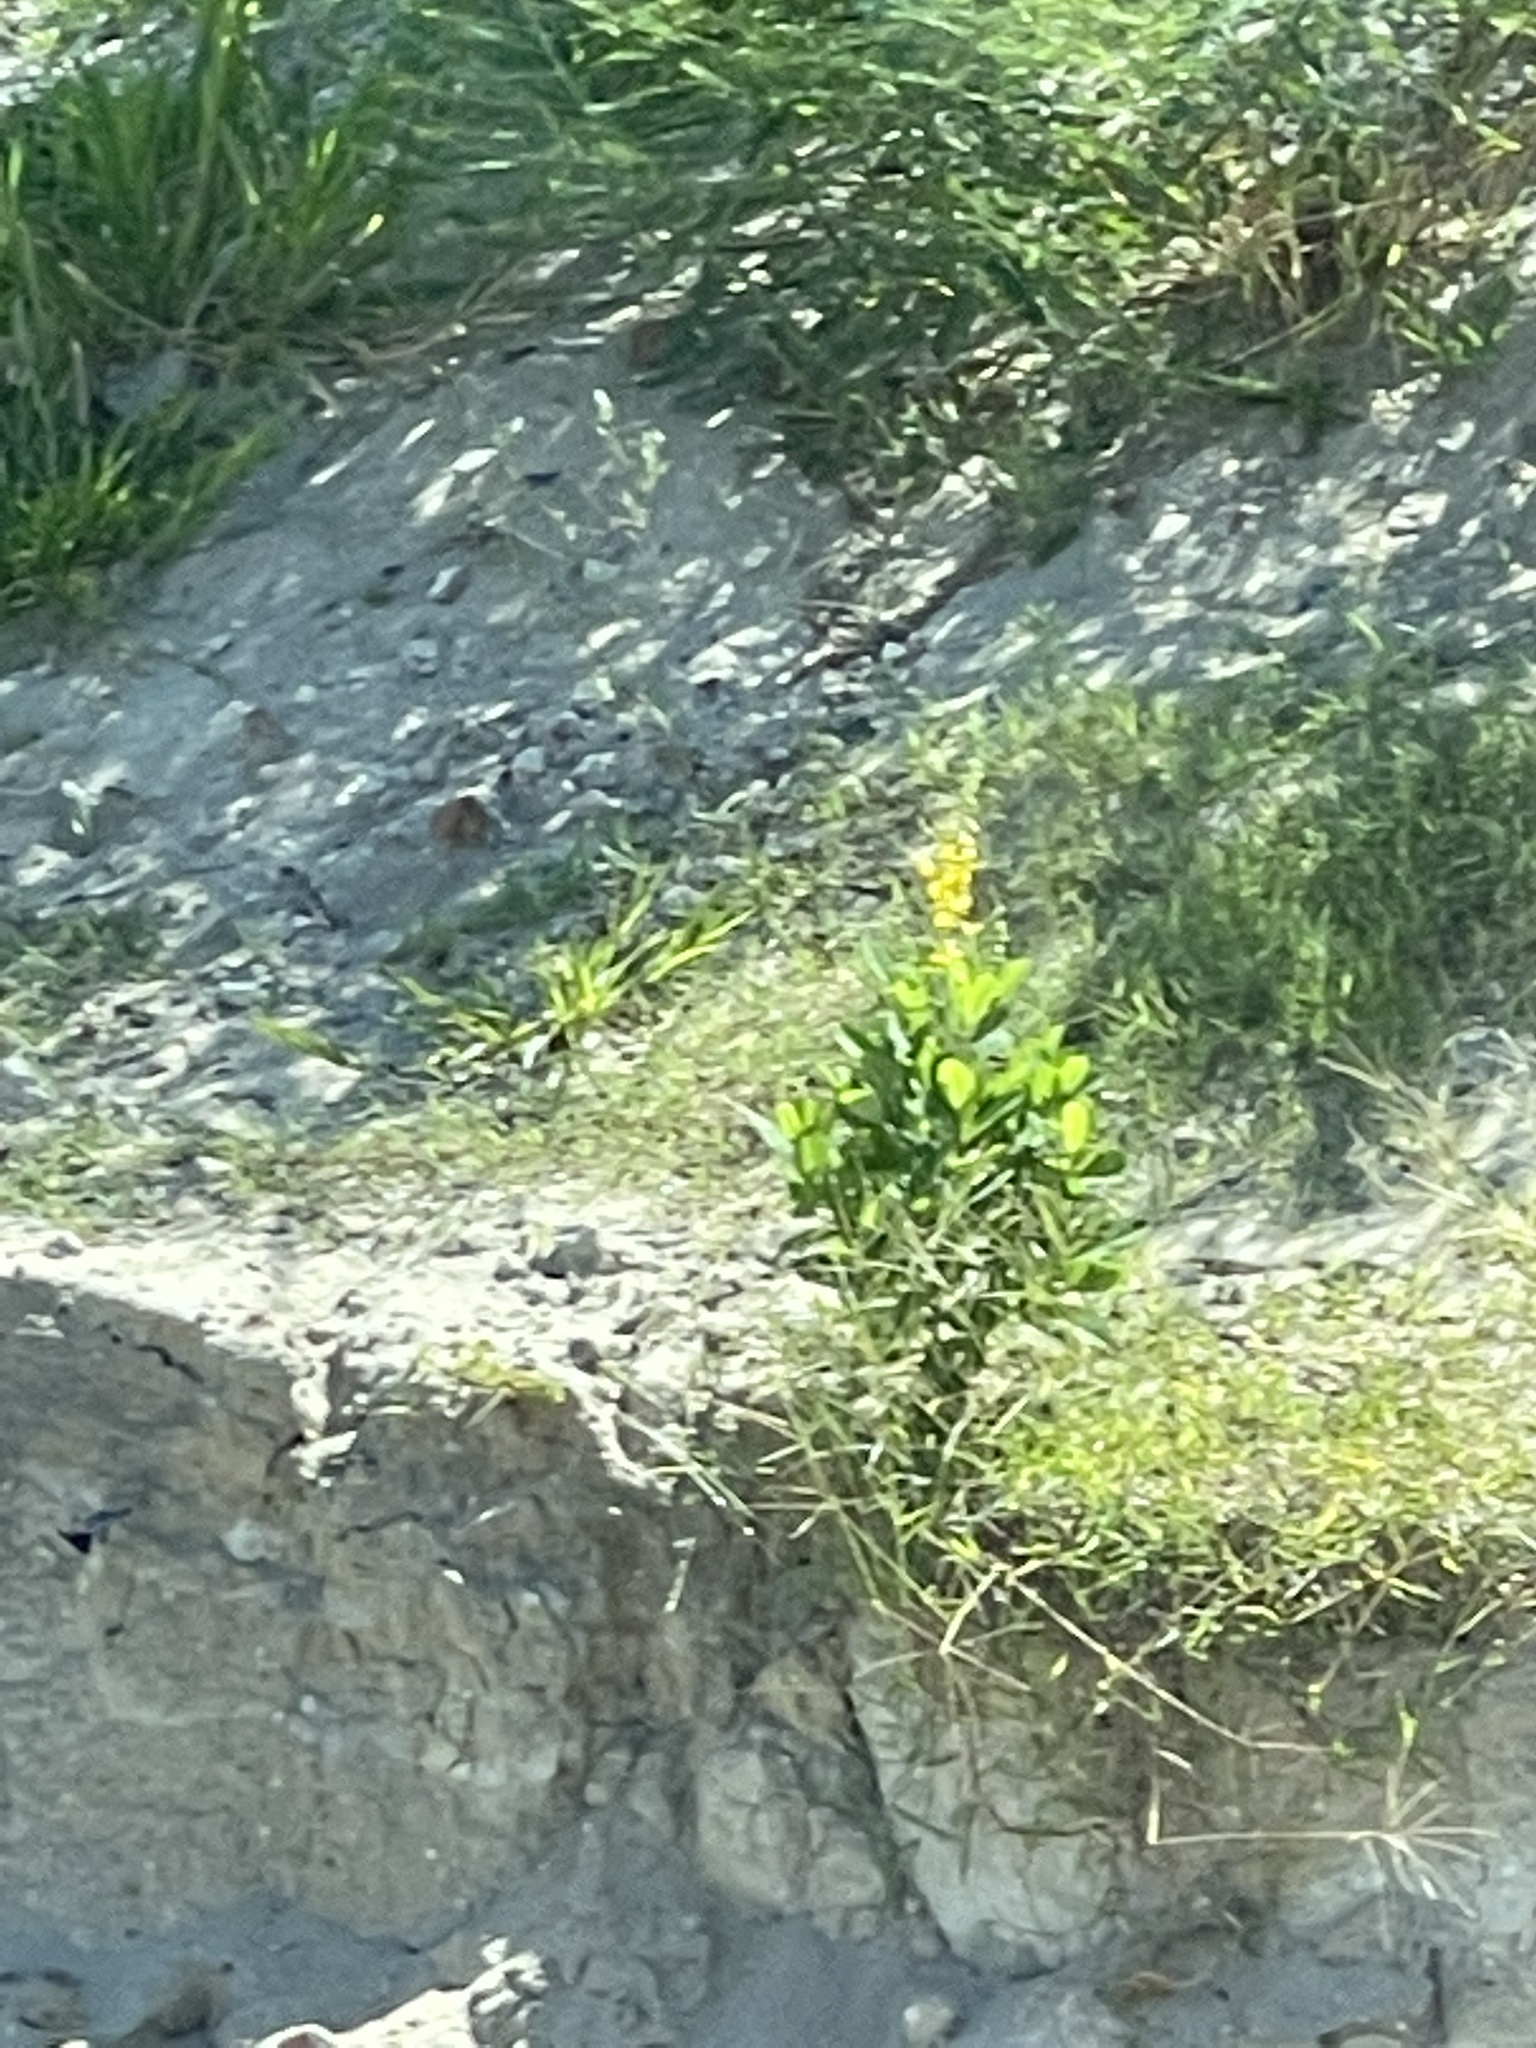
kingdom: Plantae
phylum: Tracheophyta
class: Magnoliopsida
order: Fabales
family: Fabaceae
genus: Crotalaria
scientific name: Crotalaria spectabilis
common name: Showy rattlebox
